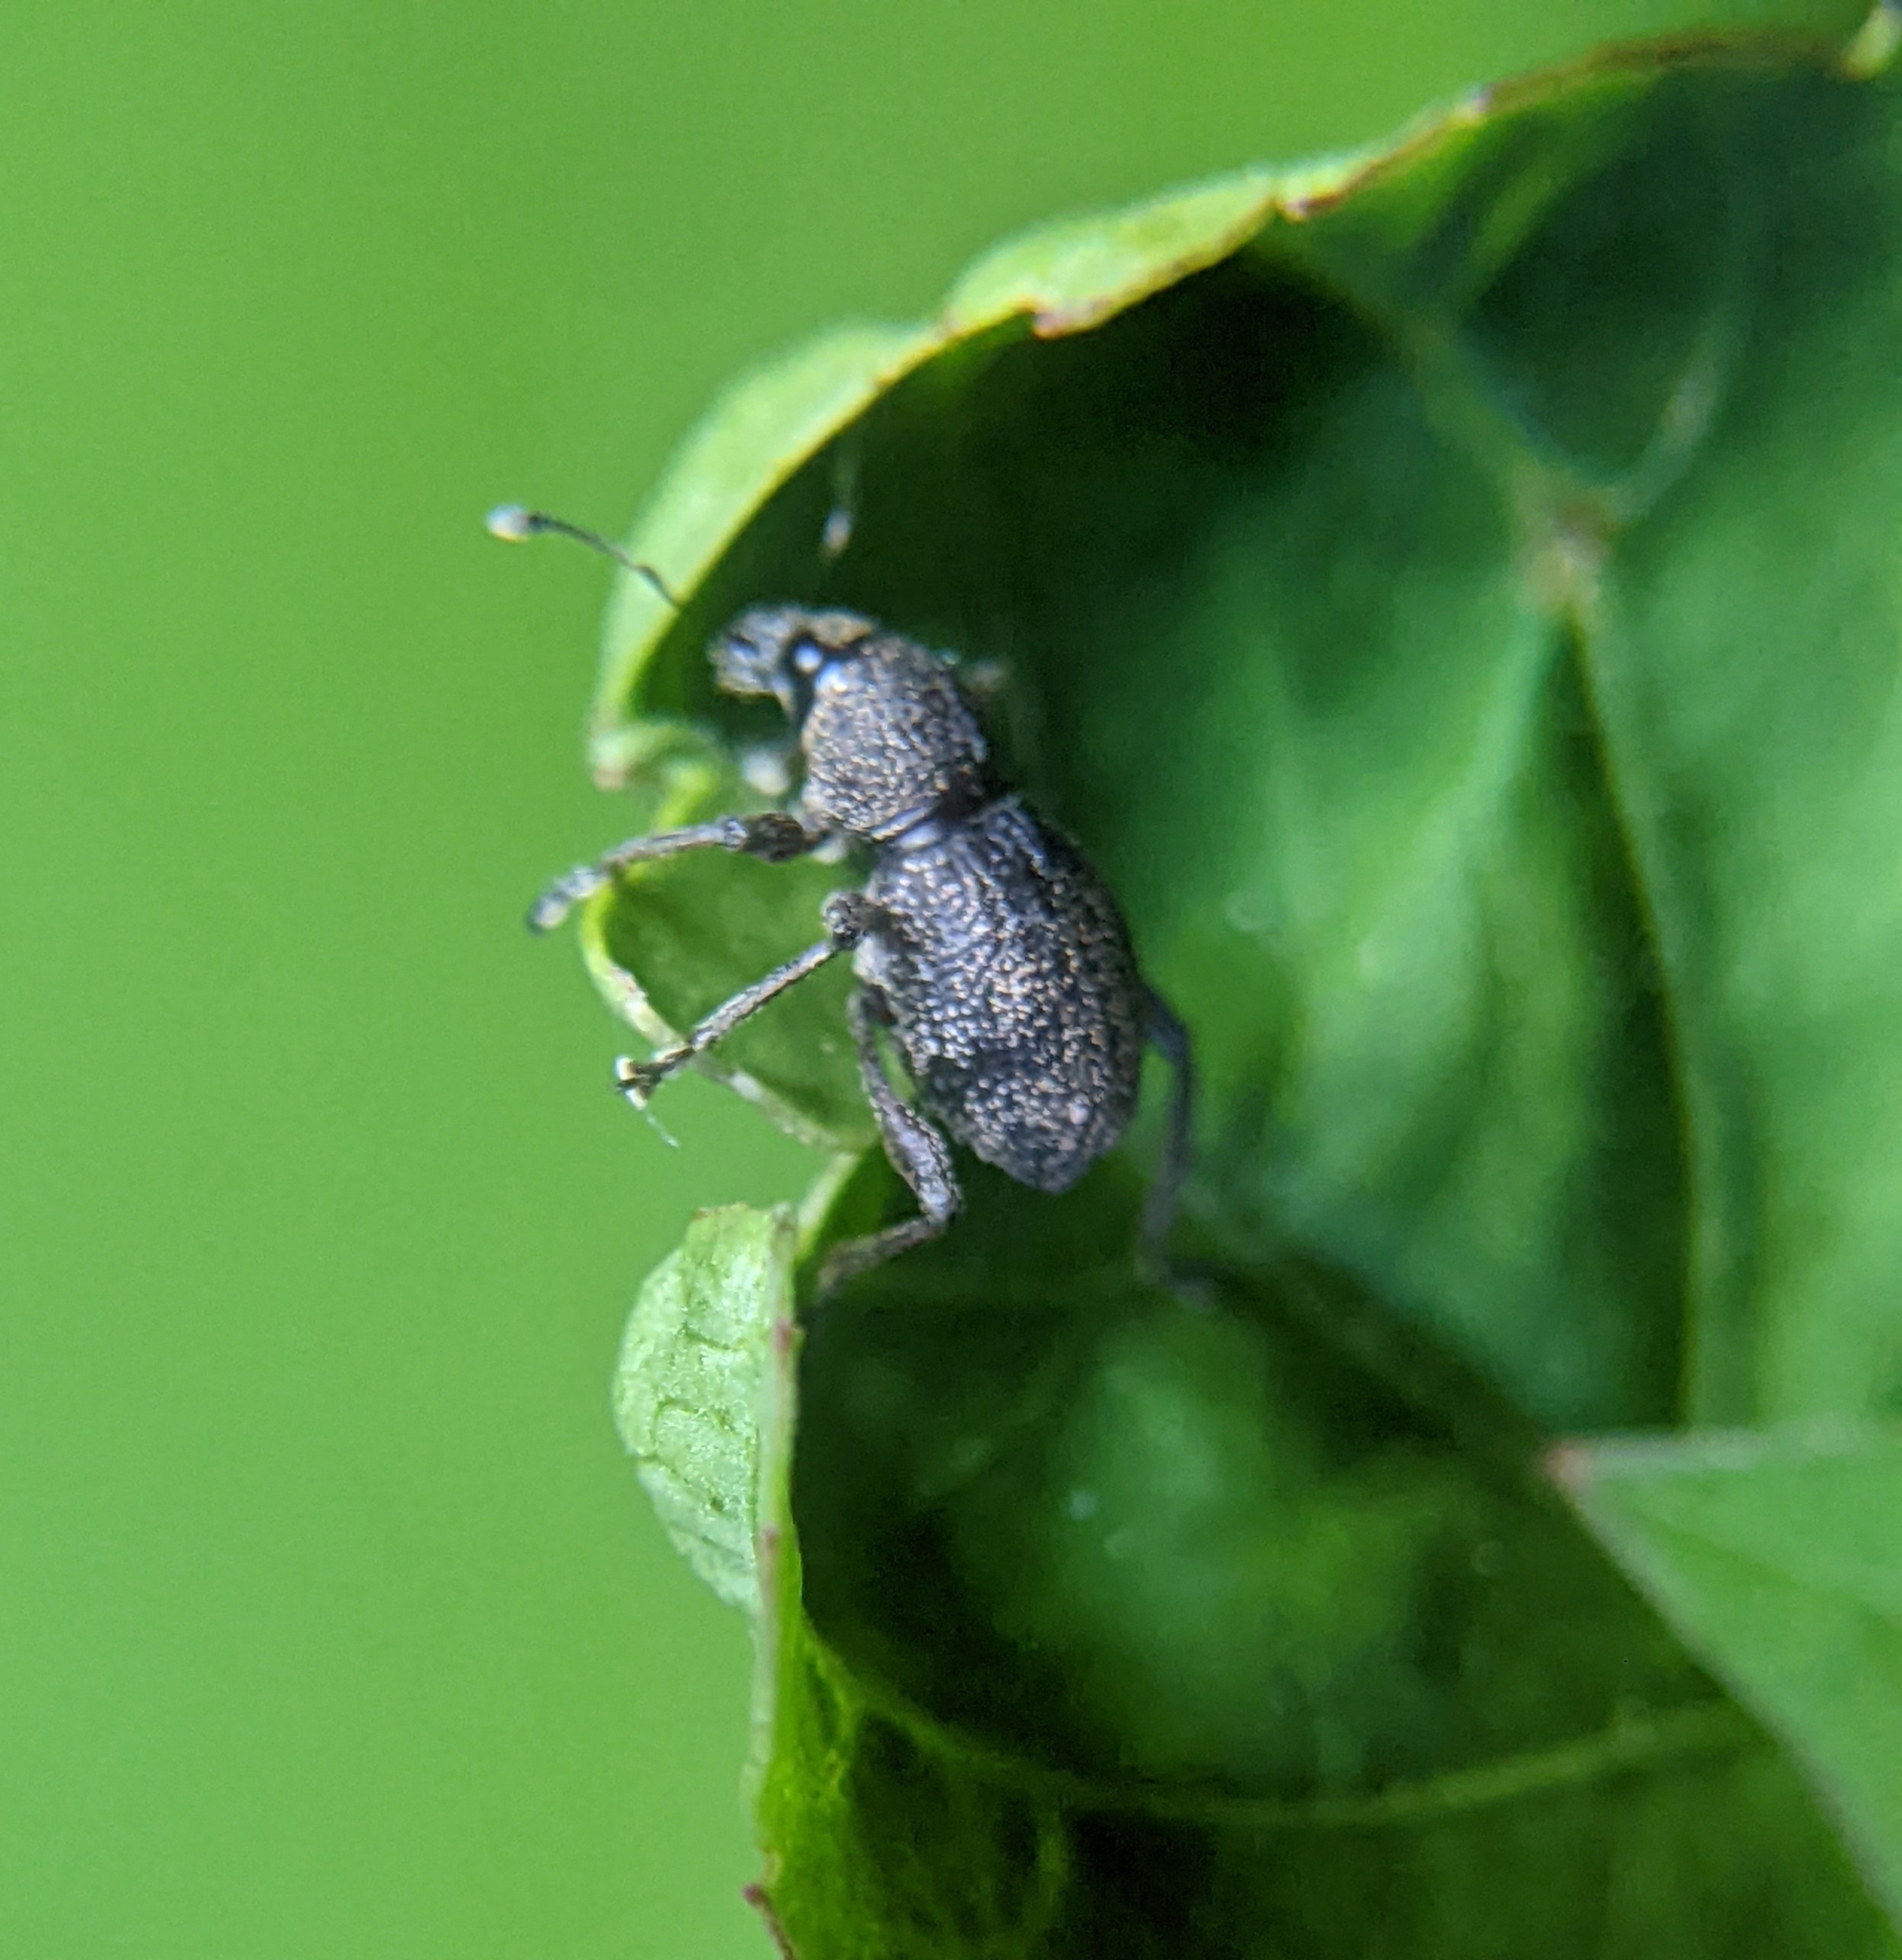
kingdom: Animalia
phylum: Arthropoda
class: Insecta
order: Coleoptera
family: Curculionidae
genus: Metapocyrtus
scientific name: Metapocyrtus adspersus
